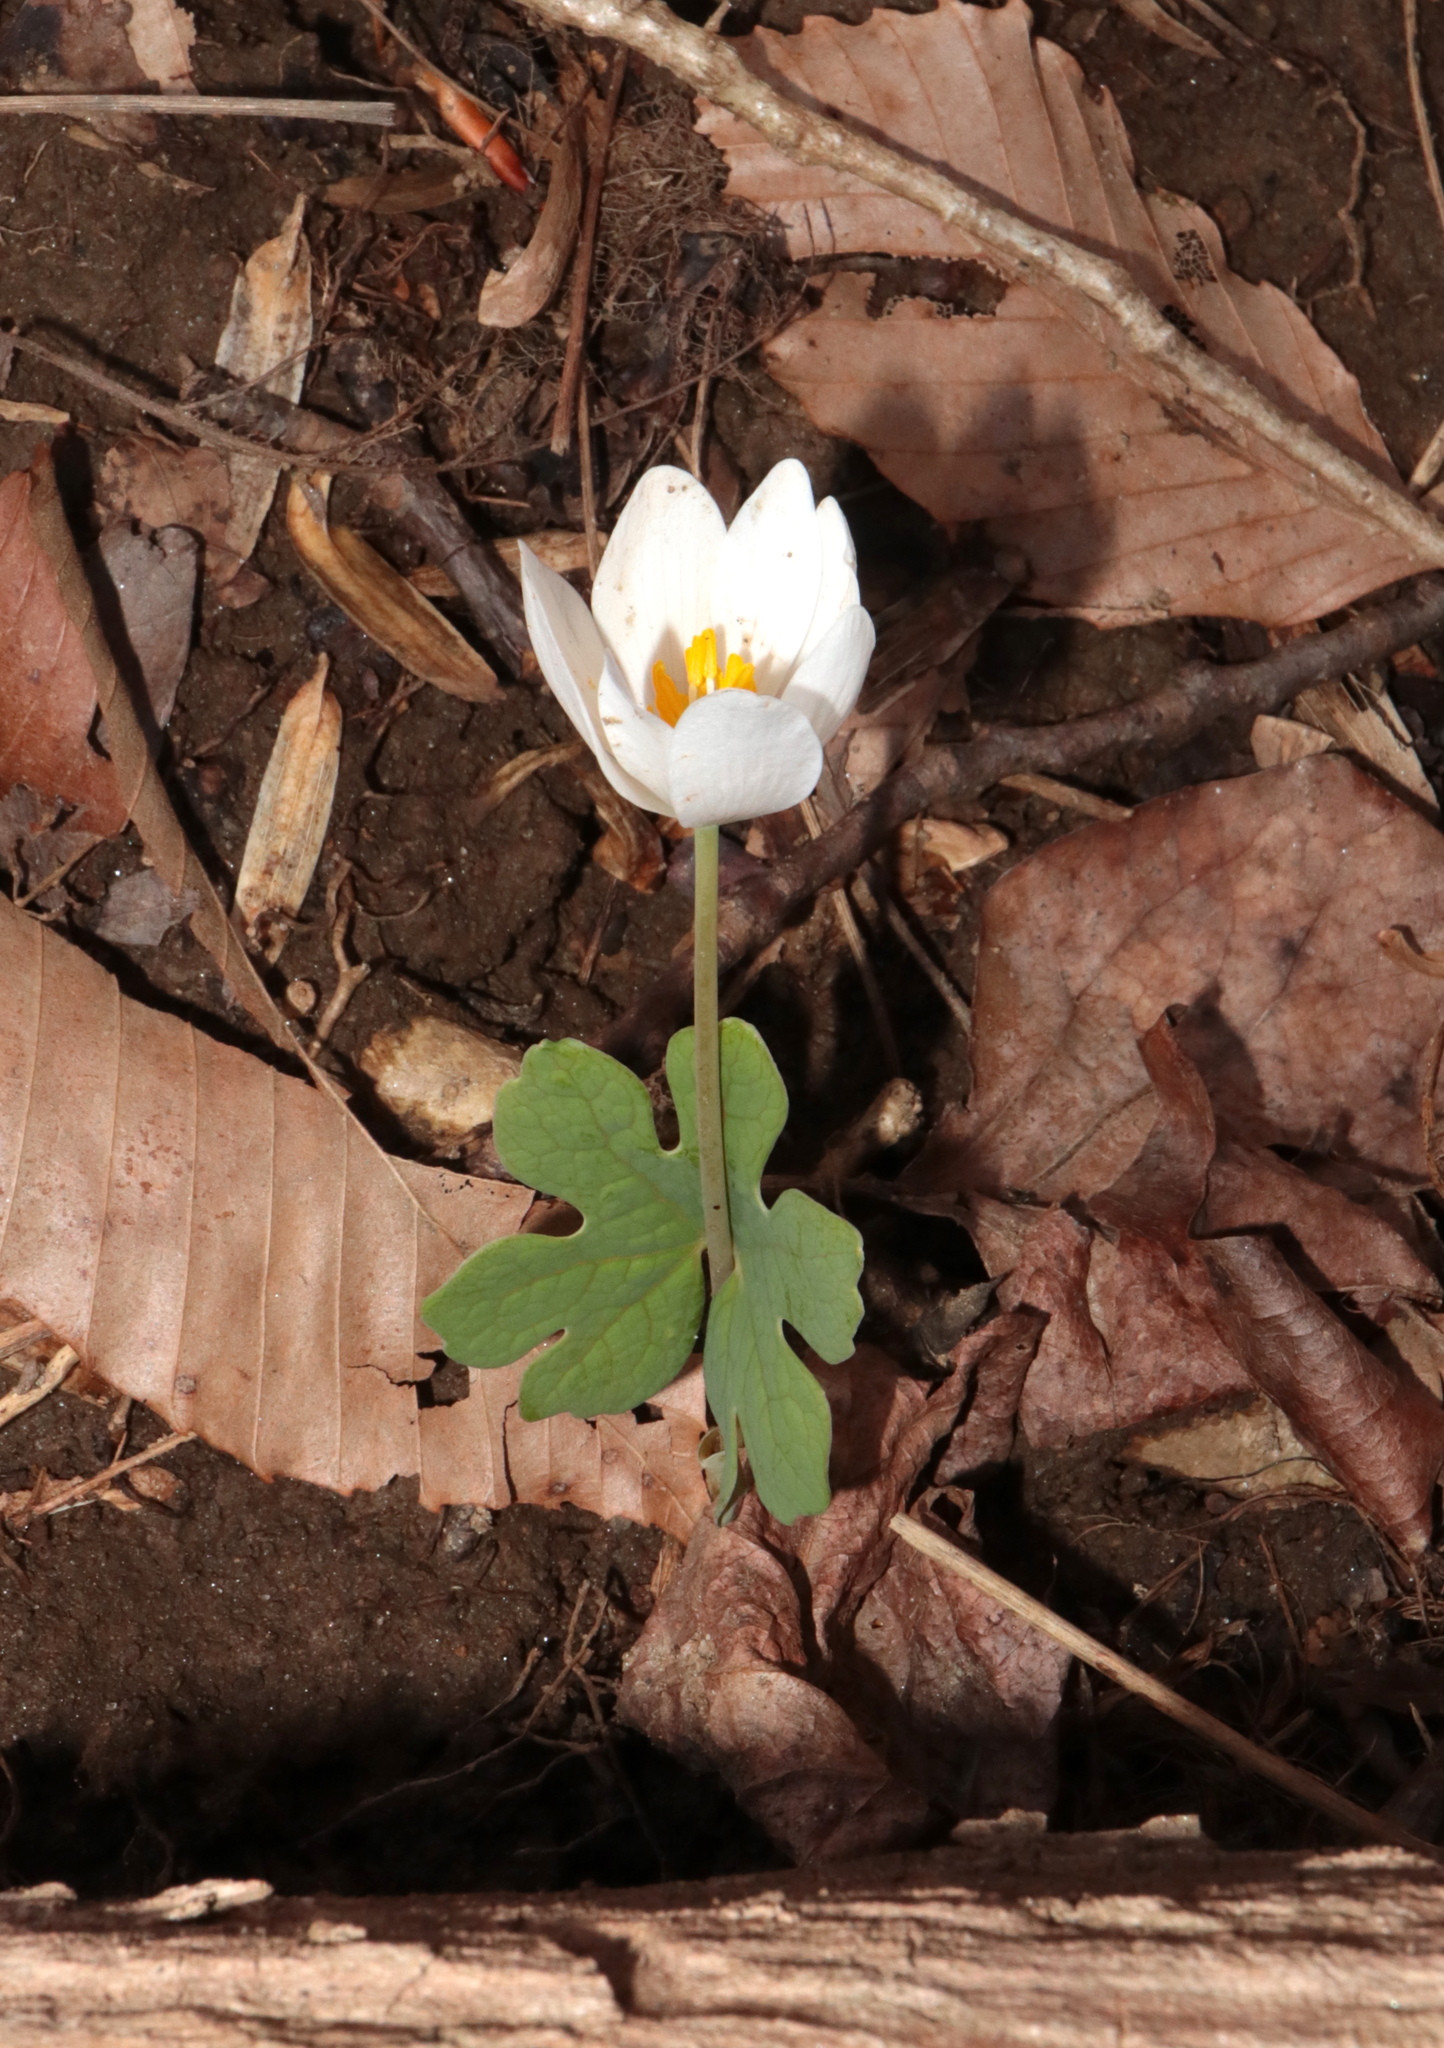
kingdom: Plantae
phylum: Tracheophyta
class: Magnoliopsida
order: Ranunculales
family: Papaveraceae
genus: Sanguinaria
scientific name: Sanguinaria canadensis
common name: Bloodroot
